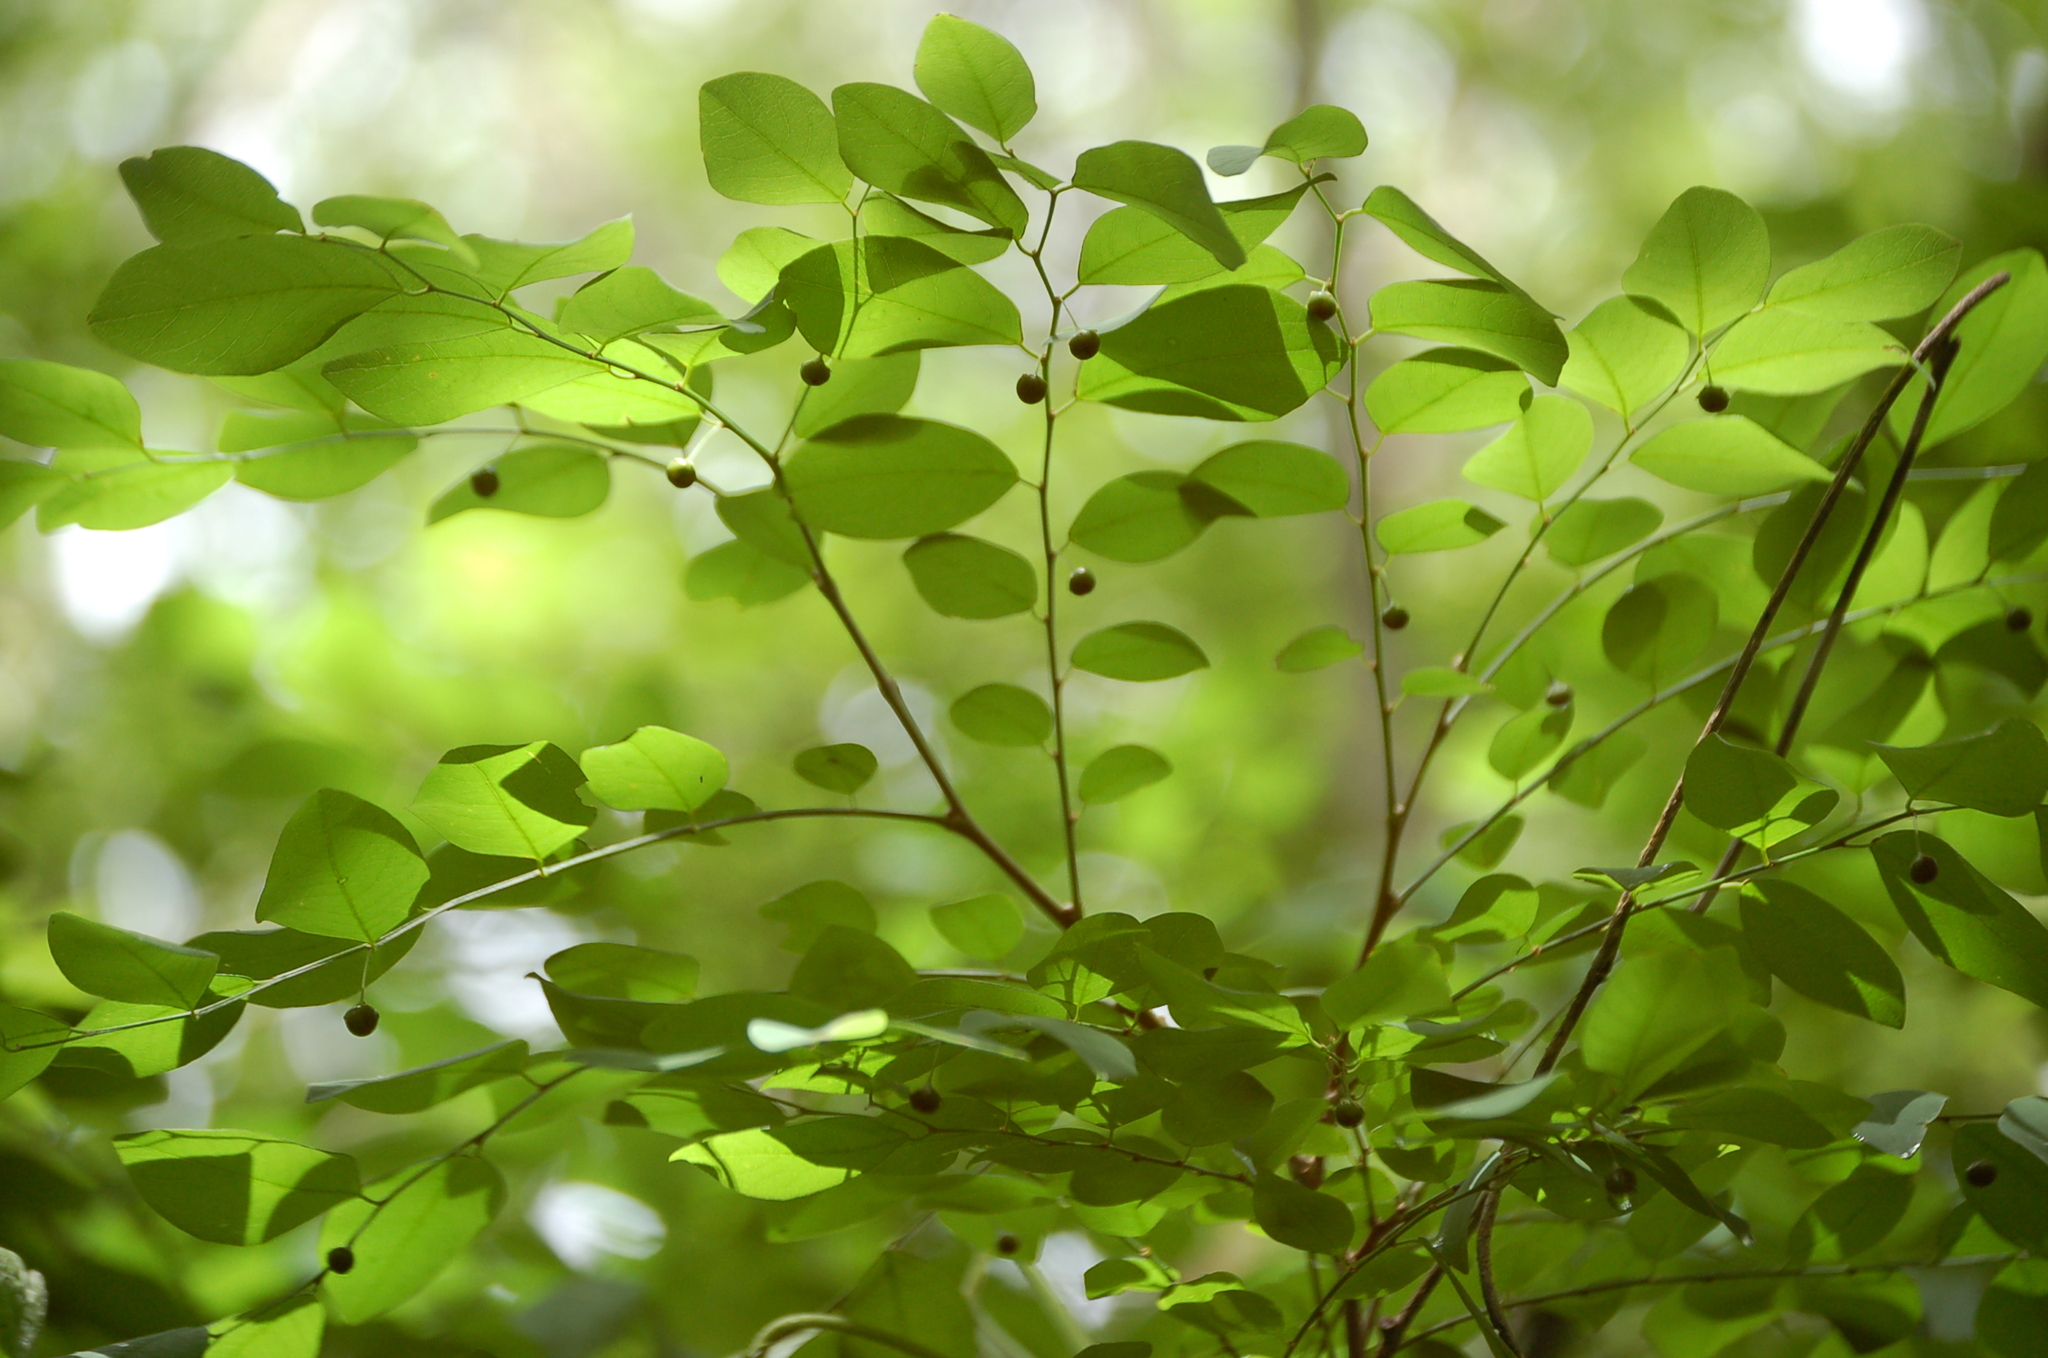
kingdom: Plantae
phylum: Tracheophyta
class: Magnoliopsida
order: Malpighiales
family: Phyllanthaceae
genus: Phyllanthus
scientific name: Phyllanthus mocinoanus
